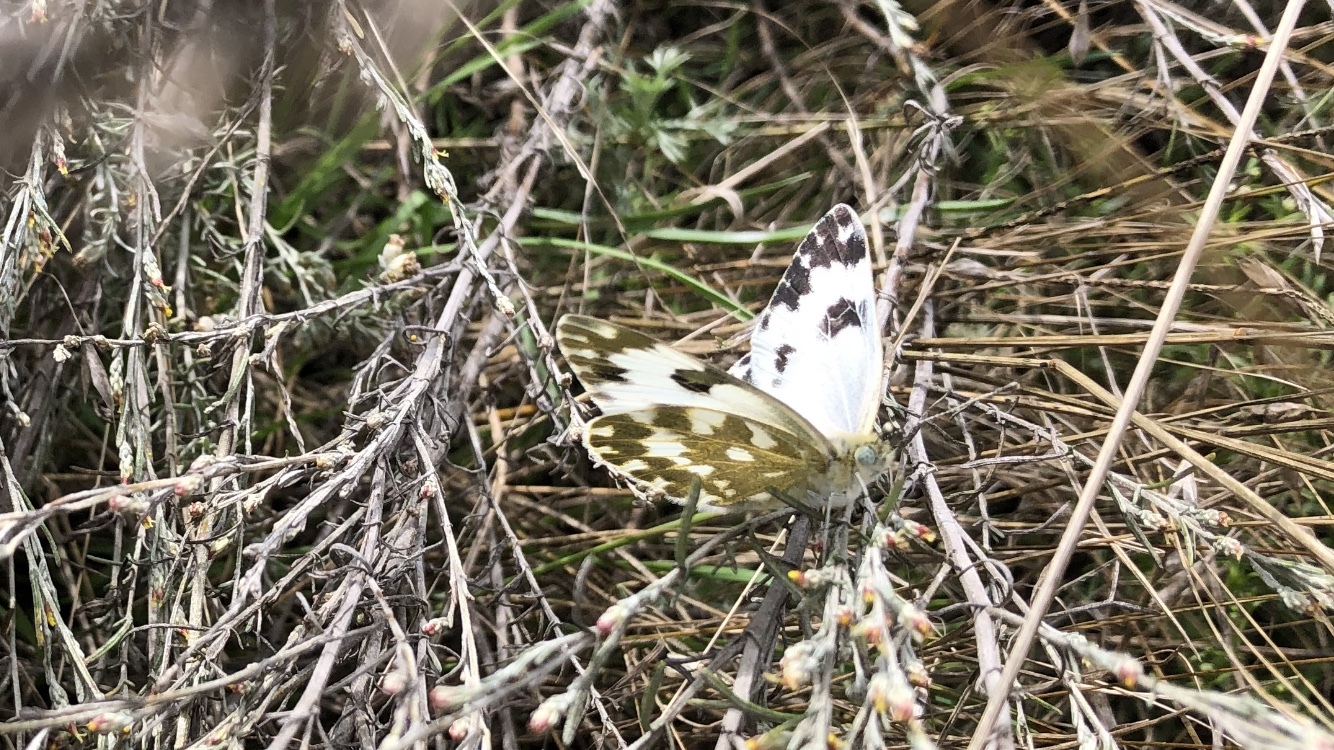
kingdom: Animalia
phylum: Arthropoda
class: Insecta
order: Lepidoptera
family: Pieridae
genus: Pontia
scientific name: Pontia edusa
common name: Eastern bath white
